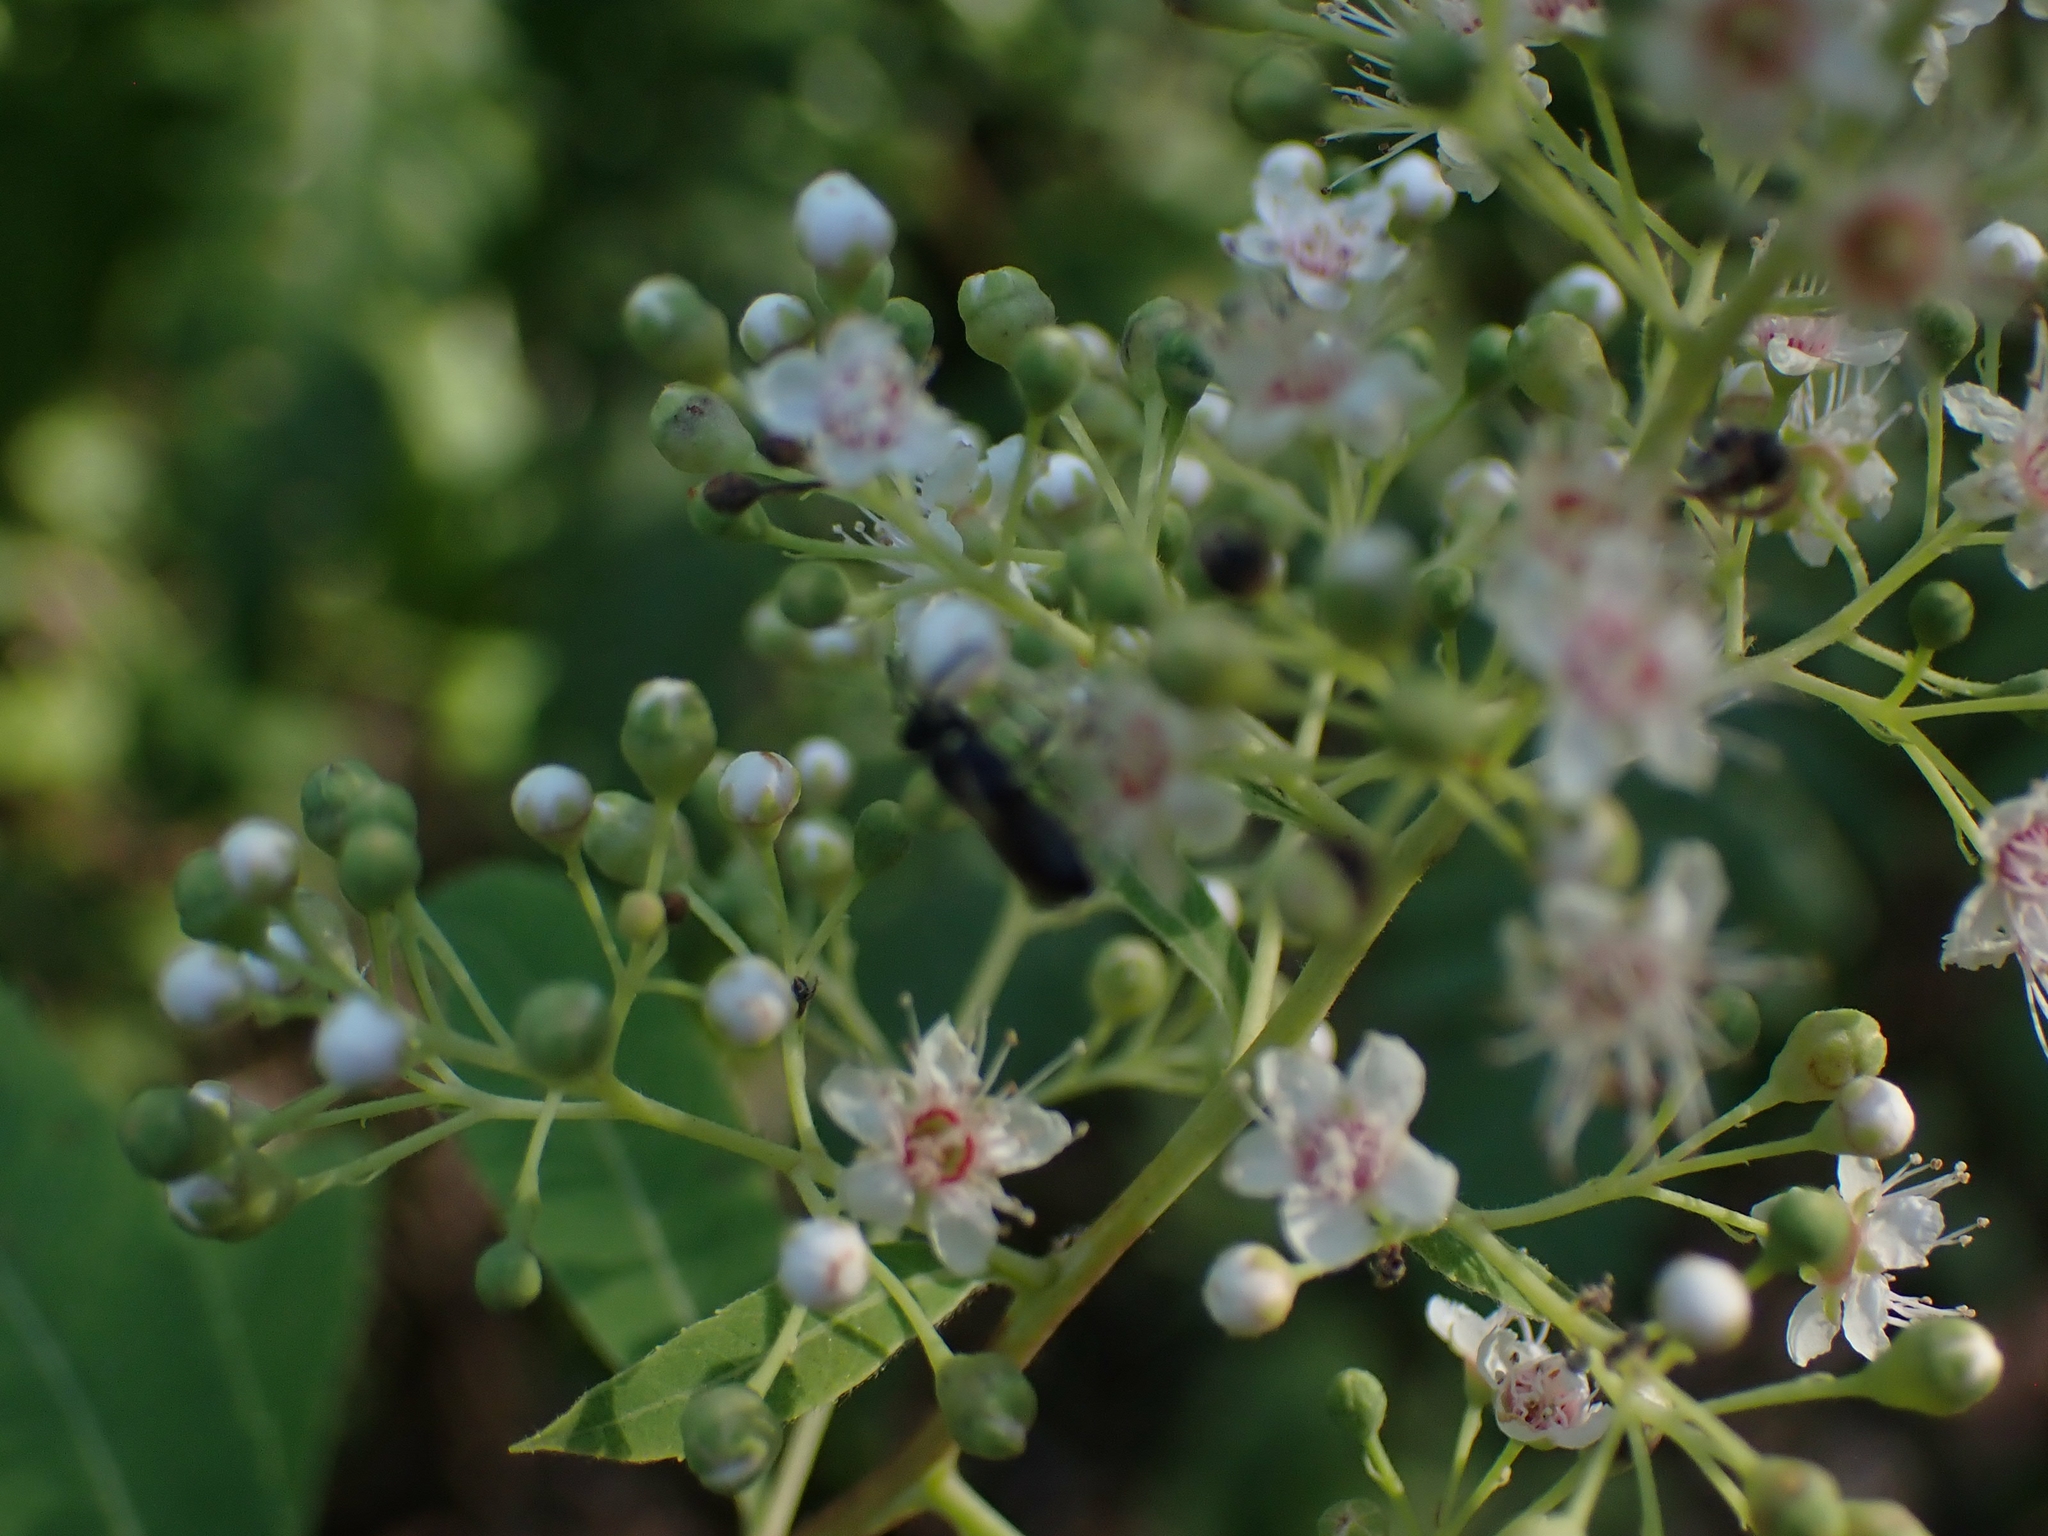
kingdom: Plantae
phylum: Tracheophyta
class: Magnoliopsida
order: Rosales
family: Rosaceae
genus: Spiraea
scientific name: Spiraea alba
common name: Pale bridewort
